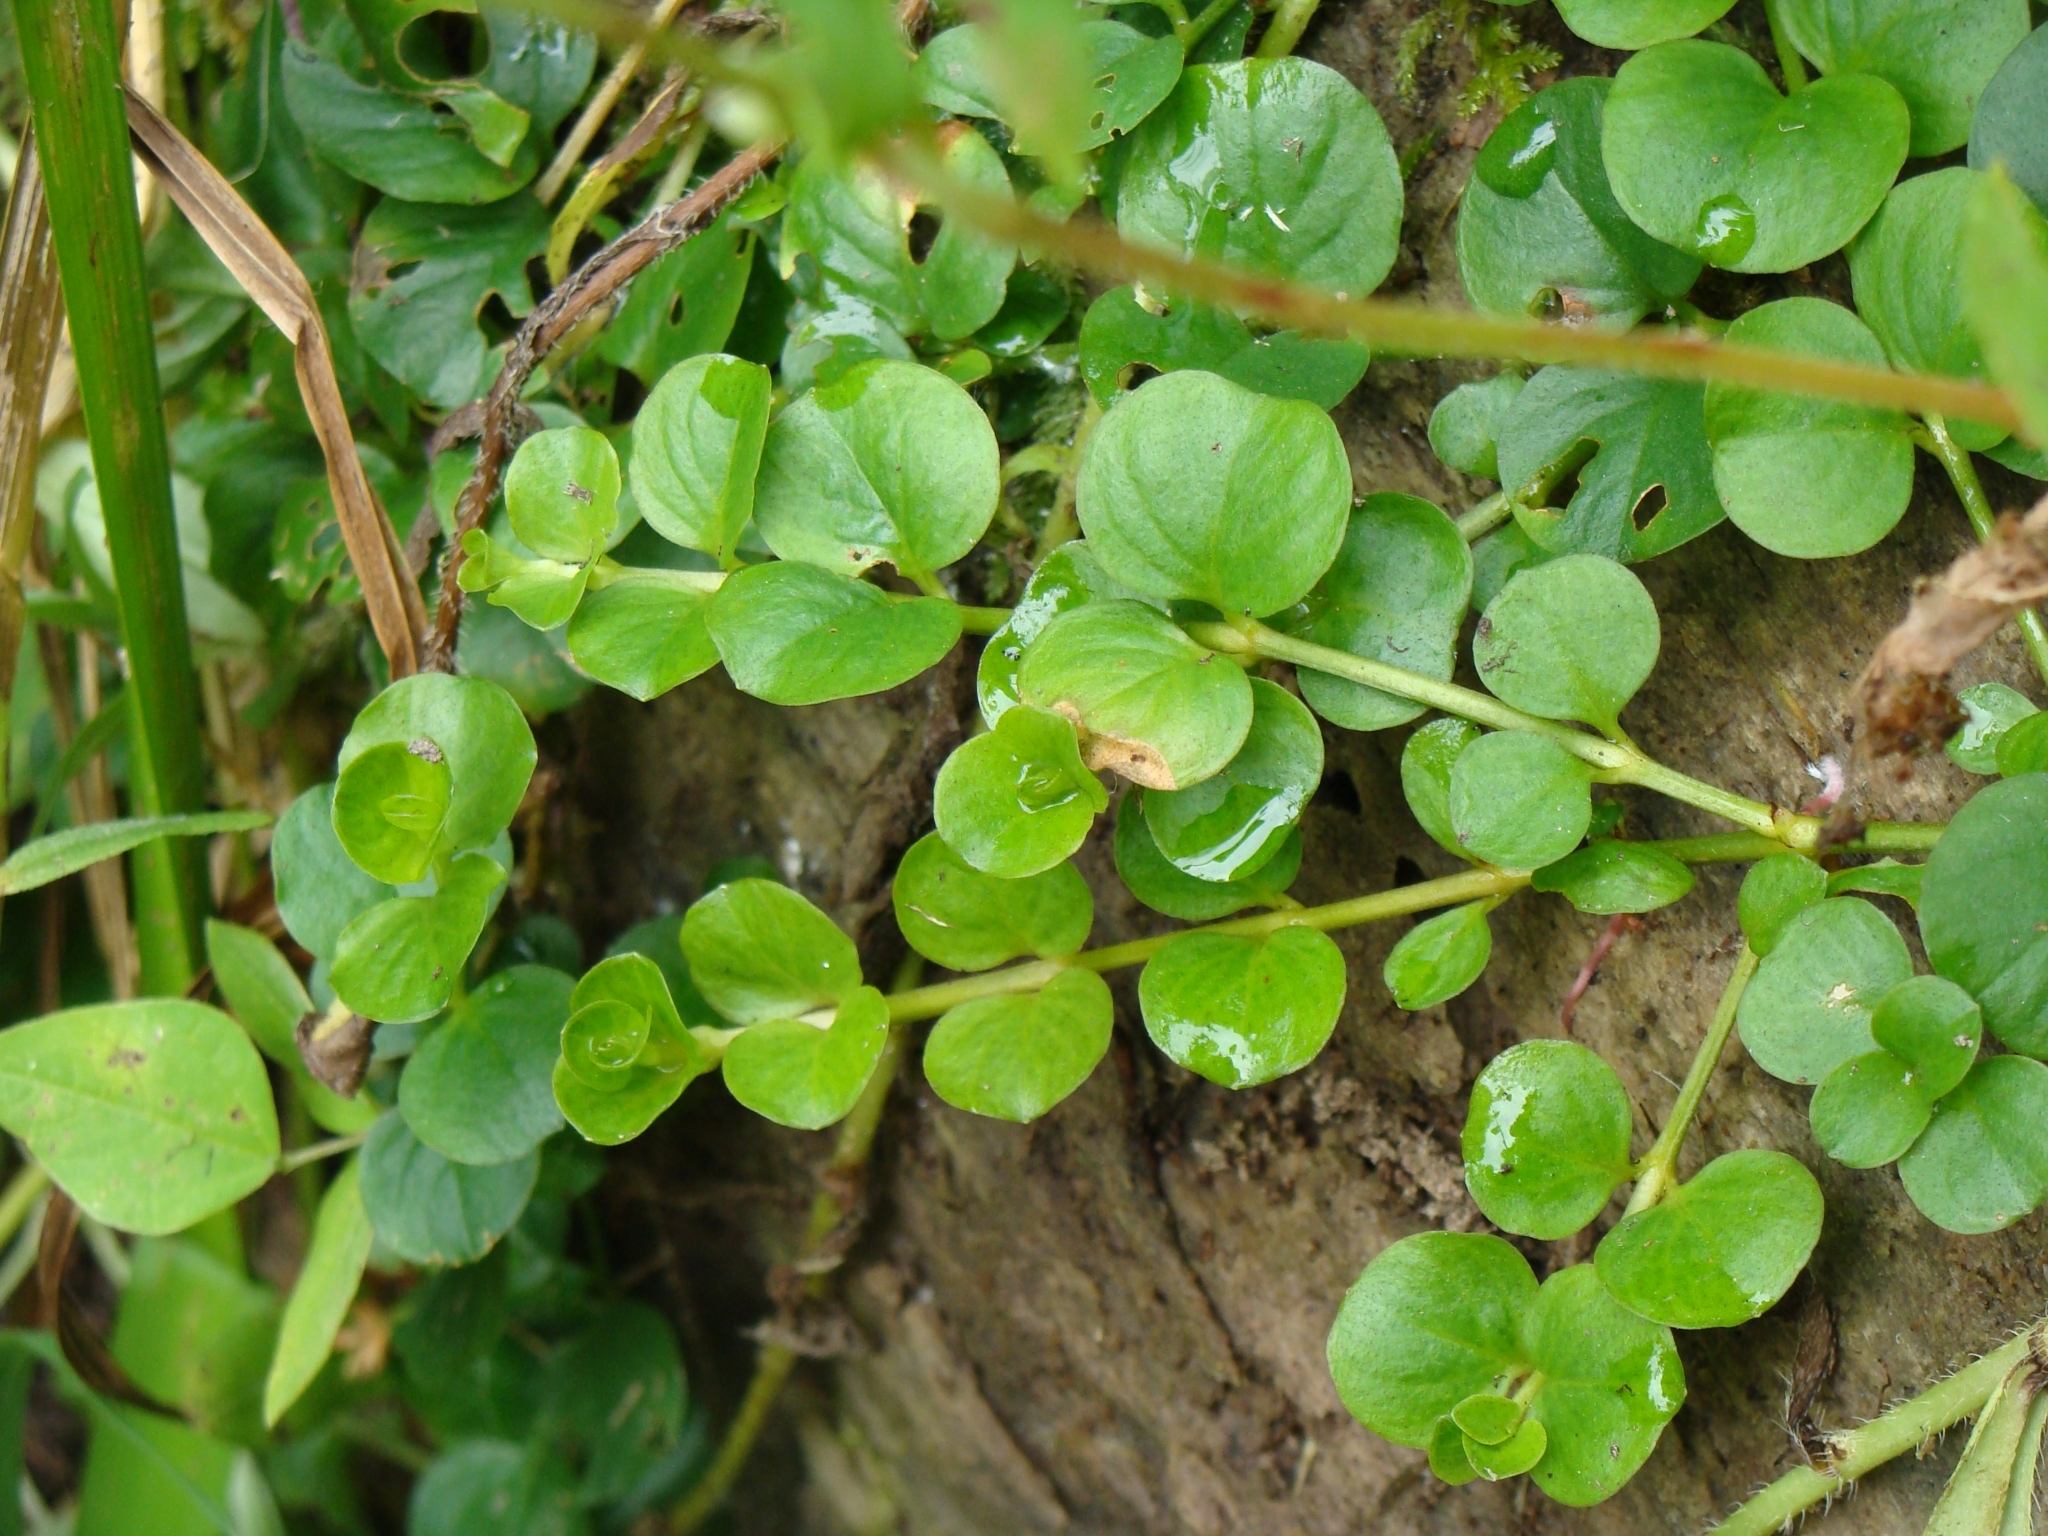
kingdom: Plantae
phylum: Tracheophyta
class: Magnoliopsida
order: Ericales
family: Primulaceae
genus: Lysimachia
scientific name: Lysimachia nummularia
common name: Moneywort
